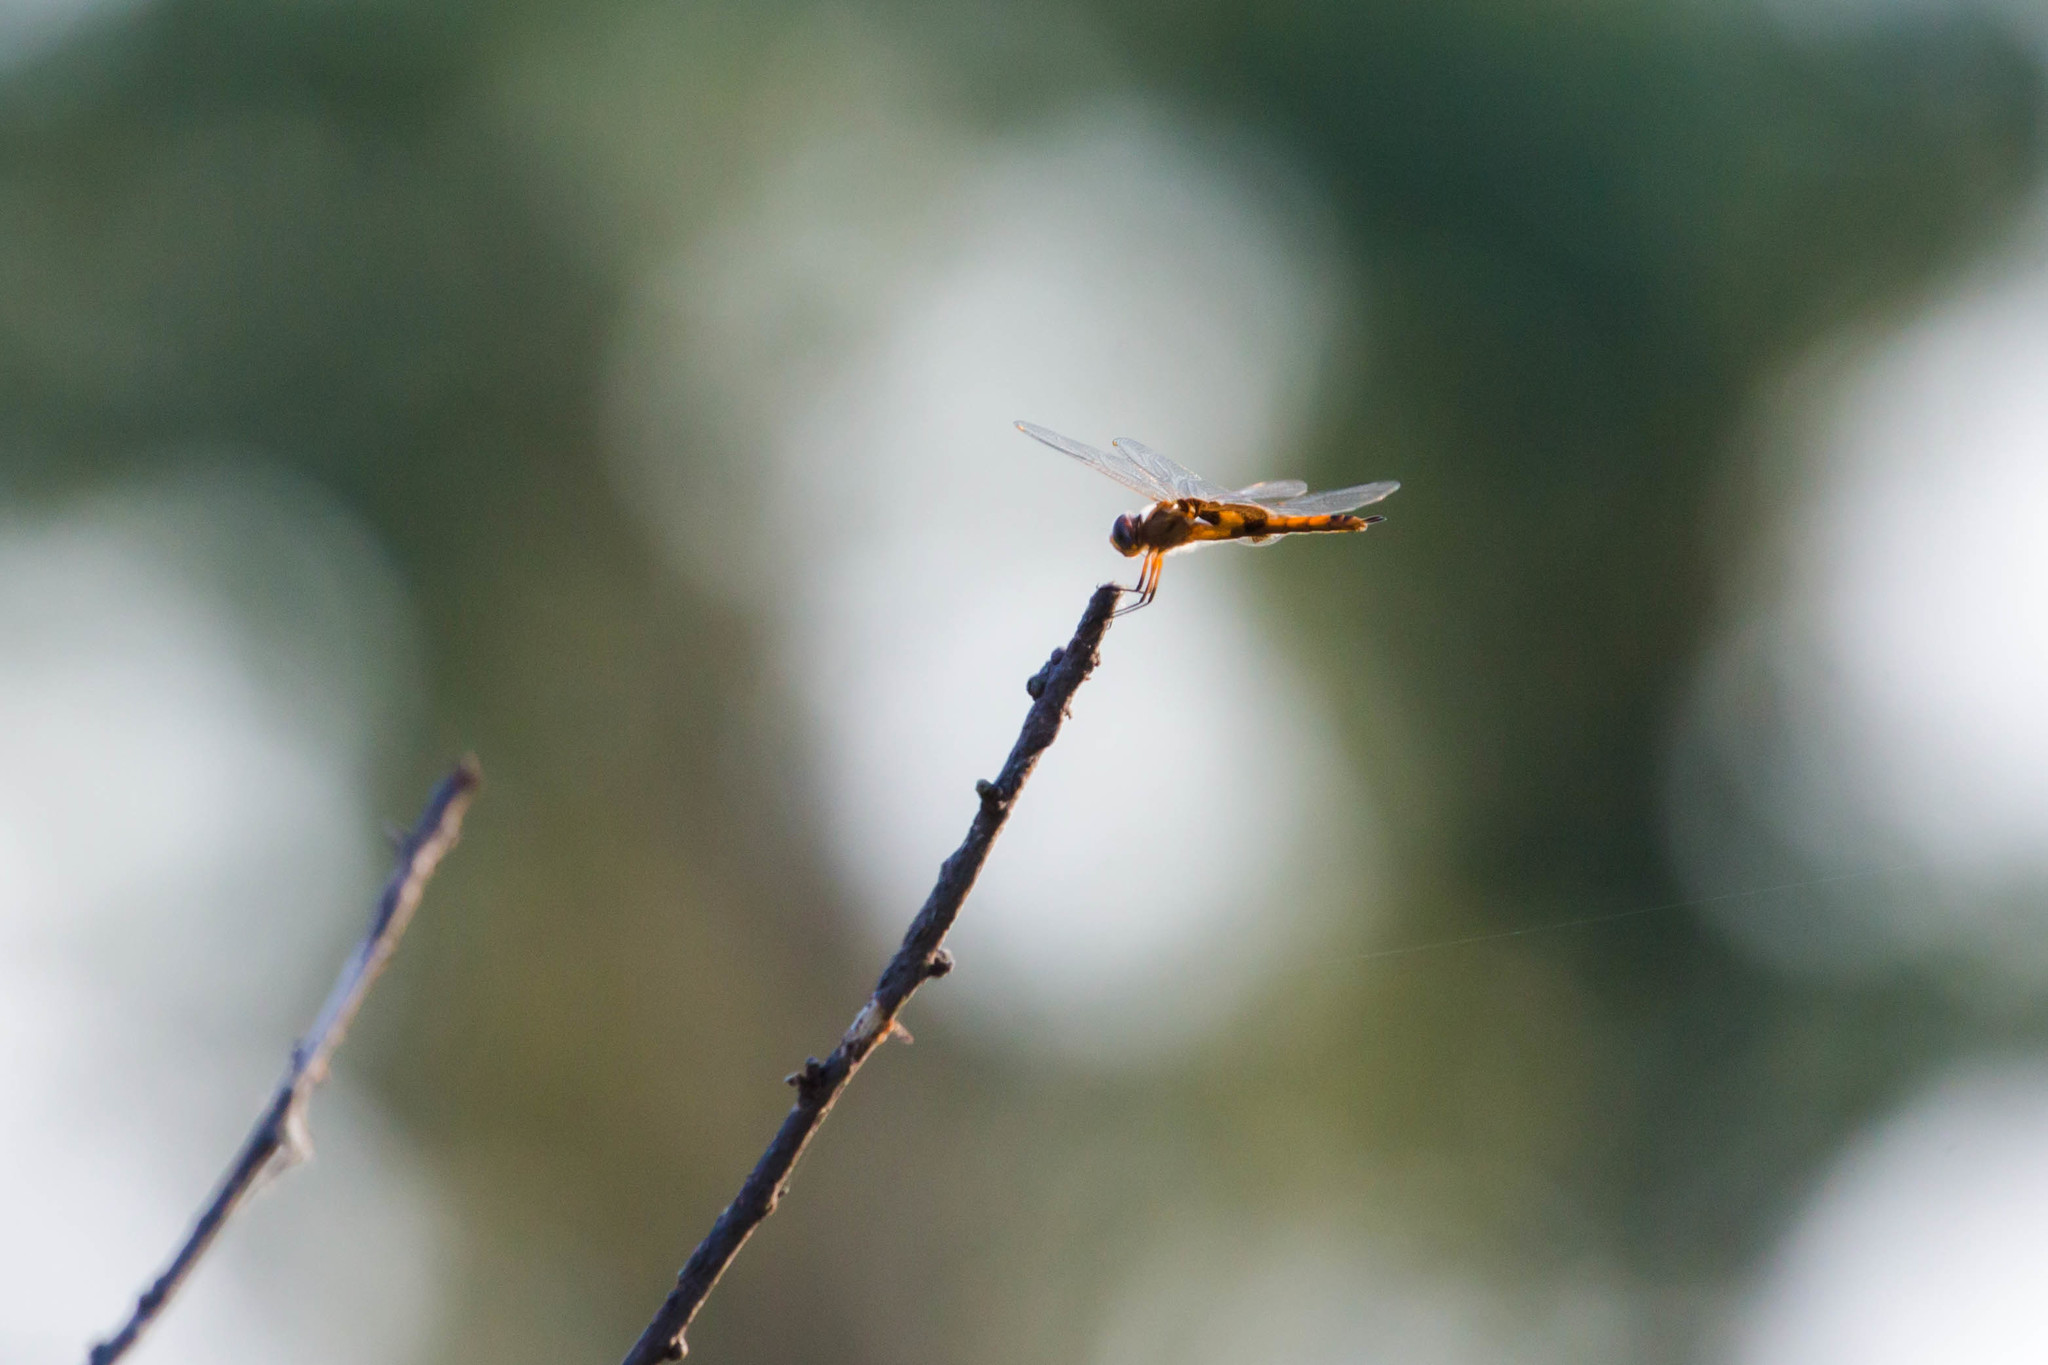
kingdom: Animalia
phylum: Arthropoda
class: Insecta
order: Odonata
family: Libellulidae
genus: Tramea
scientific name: Tramea onusta
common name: Red saddlebags
